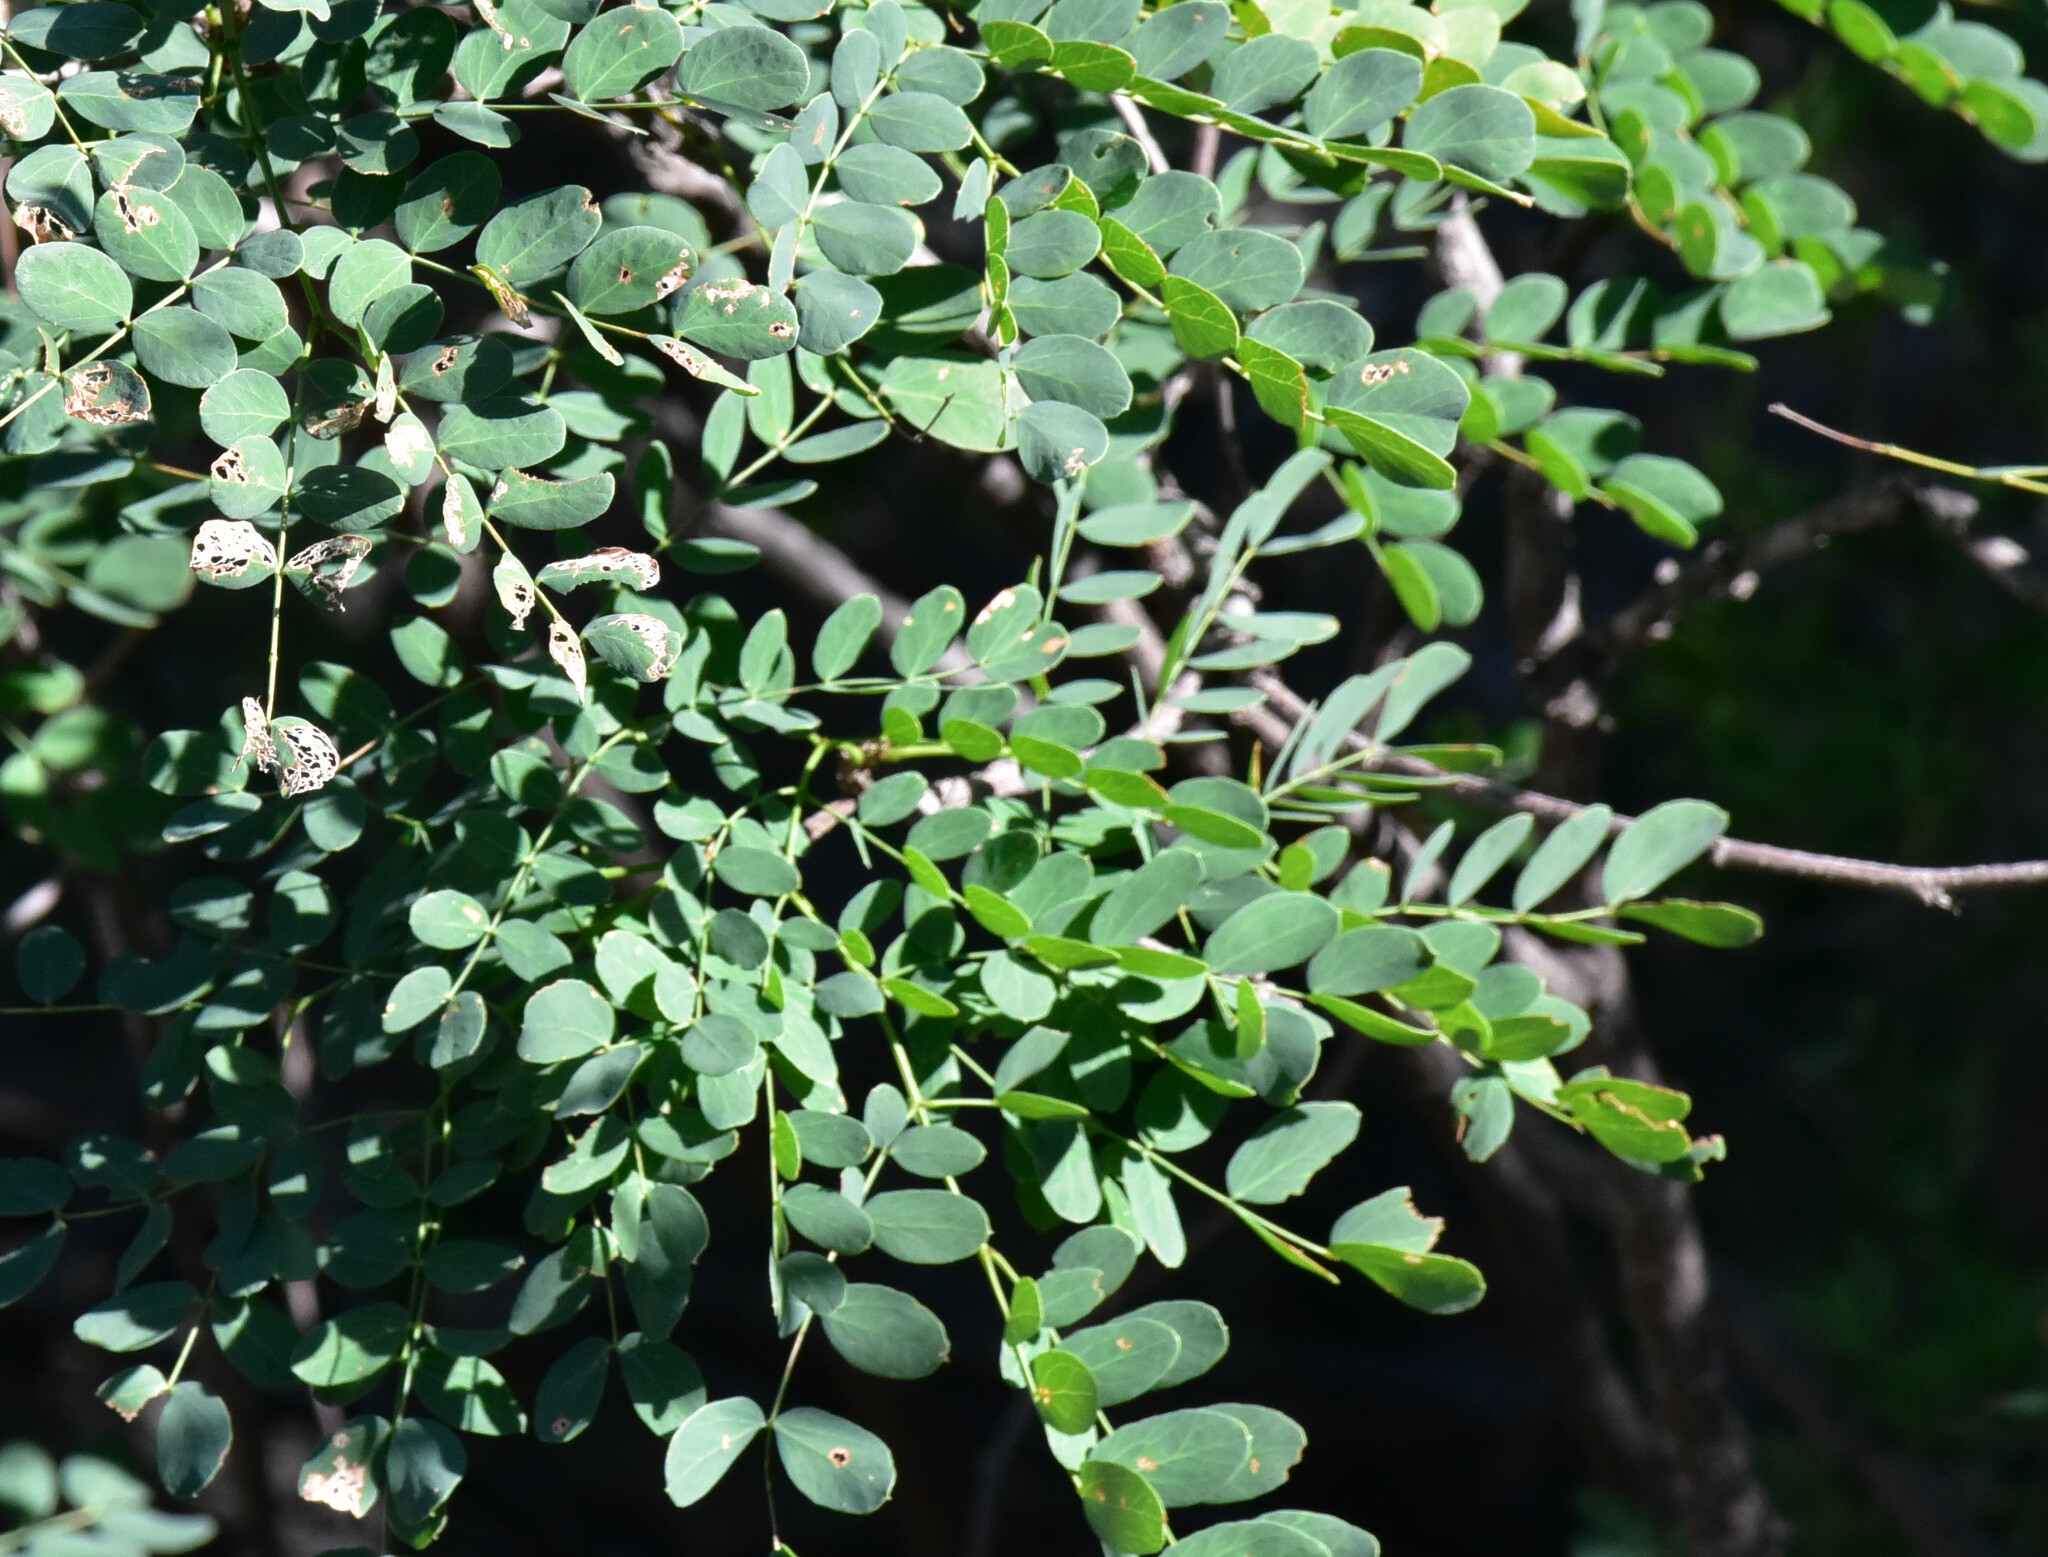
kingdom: Plantae
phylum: Tracheophyta
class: Magnoliopsida
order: Fabales
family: Fabaceae
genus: Leucaena
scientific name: Leucaena retusa
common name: Littleleaf leadtree
